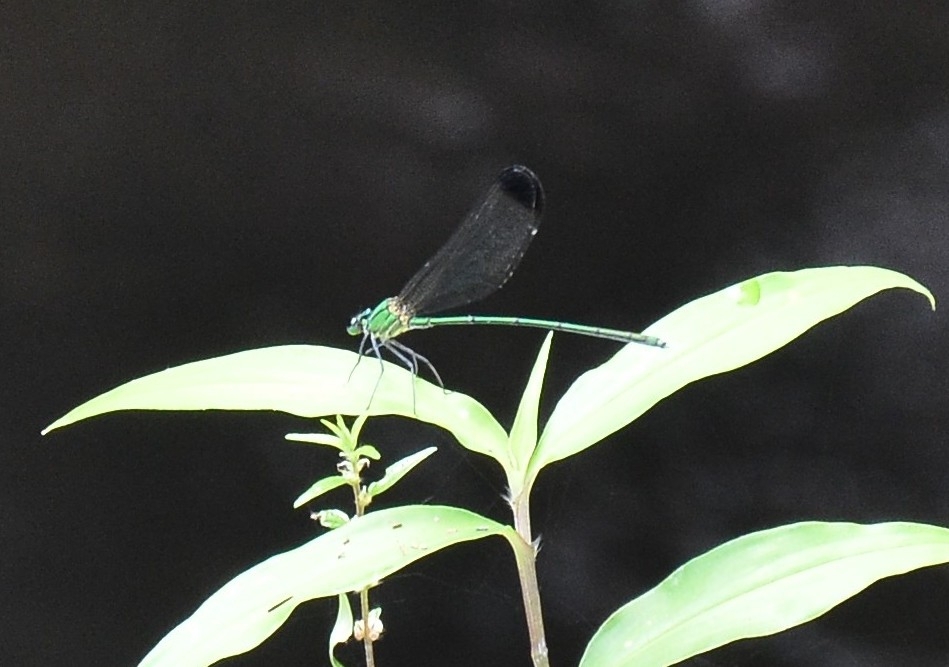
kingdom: Animalia
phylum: Arthropoda
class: Insecta
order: Odonata
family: Calopterygidae
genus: Vestalis
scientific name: Vestalis apicalis
